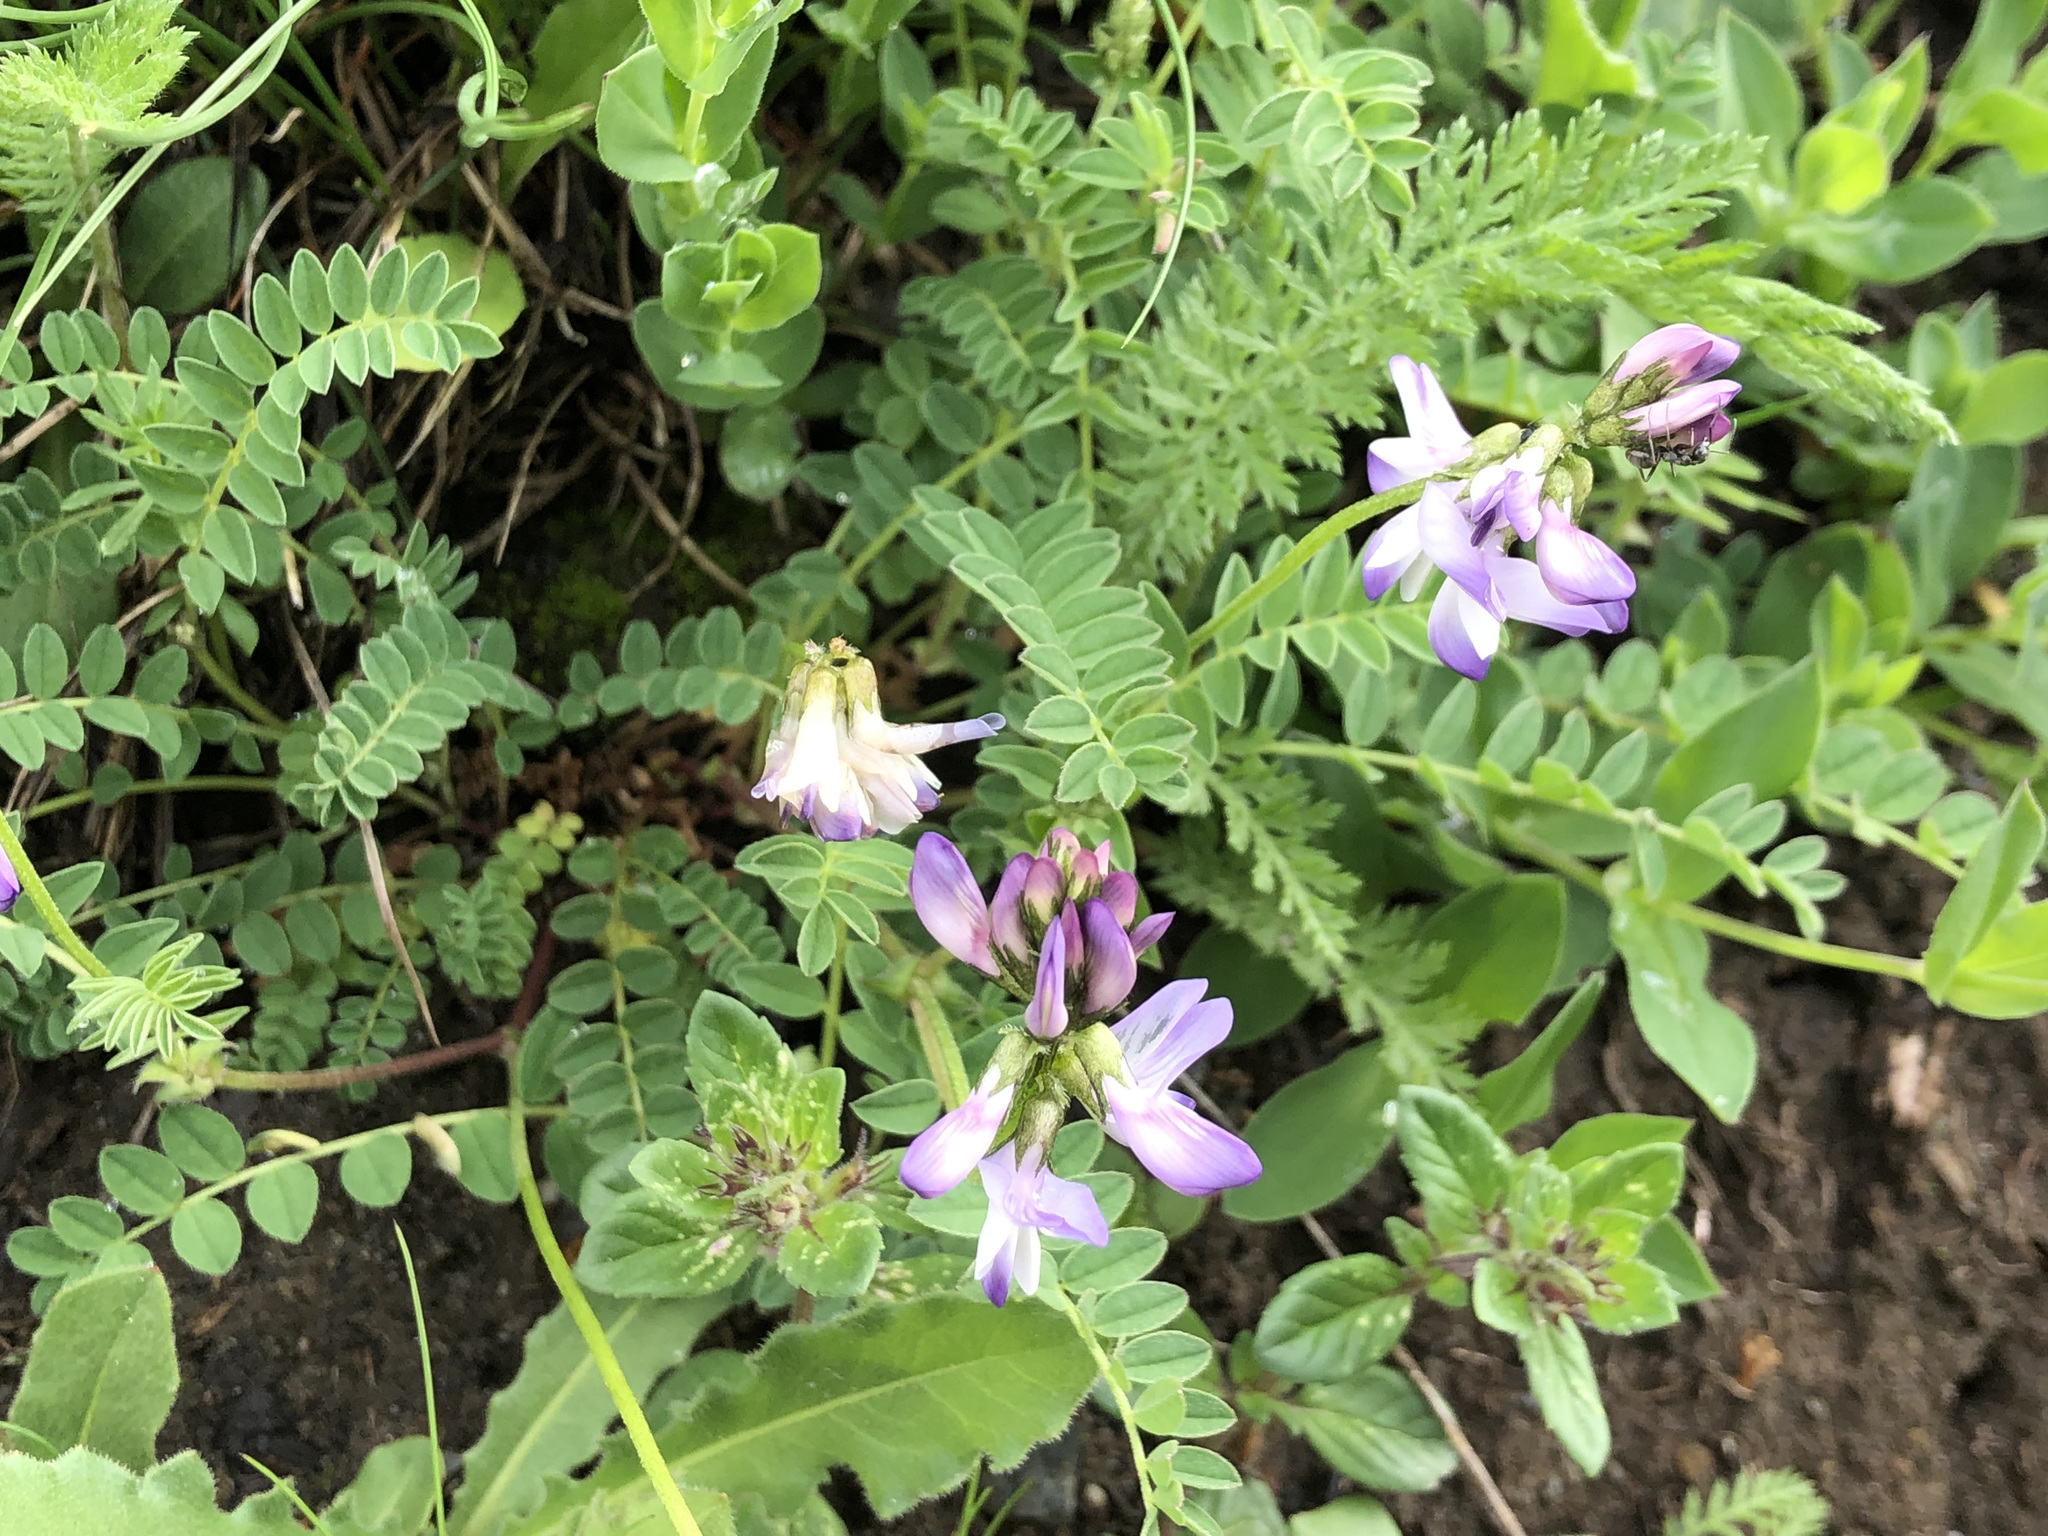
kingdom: Plantae
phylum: Tracheophyta
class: Magnoliopsida
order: Fabales
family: Fabaceae
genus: Astragalus
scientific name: Astragalus alpinus
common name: Alpine milk-vetch
